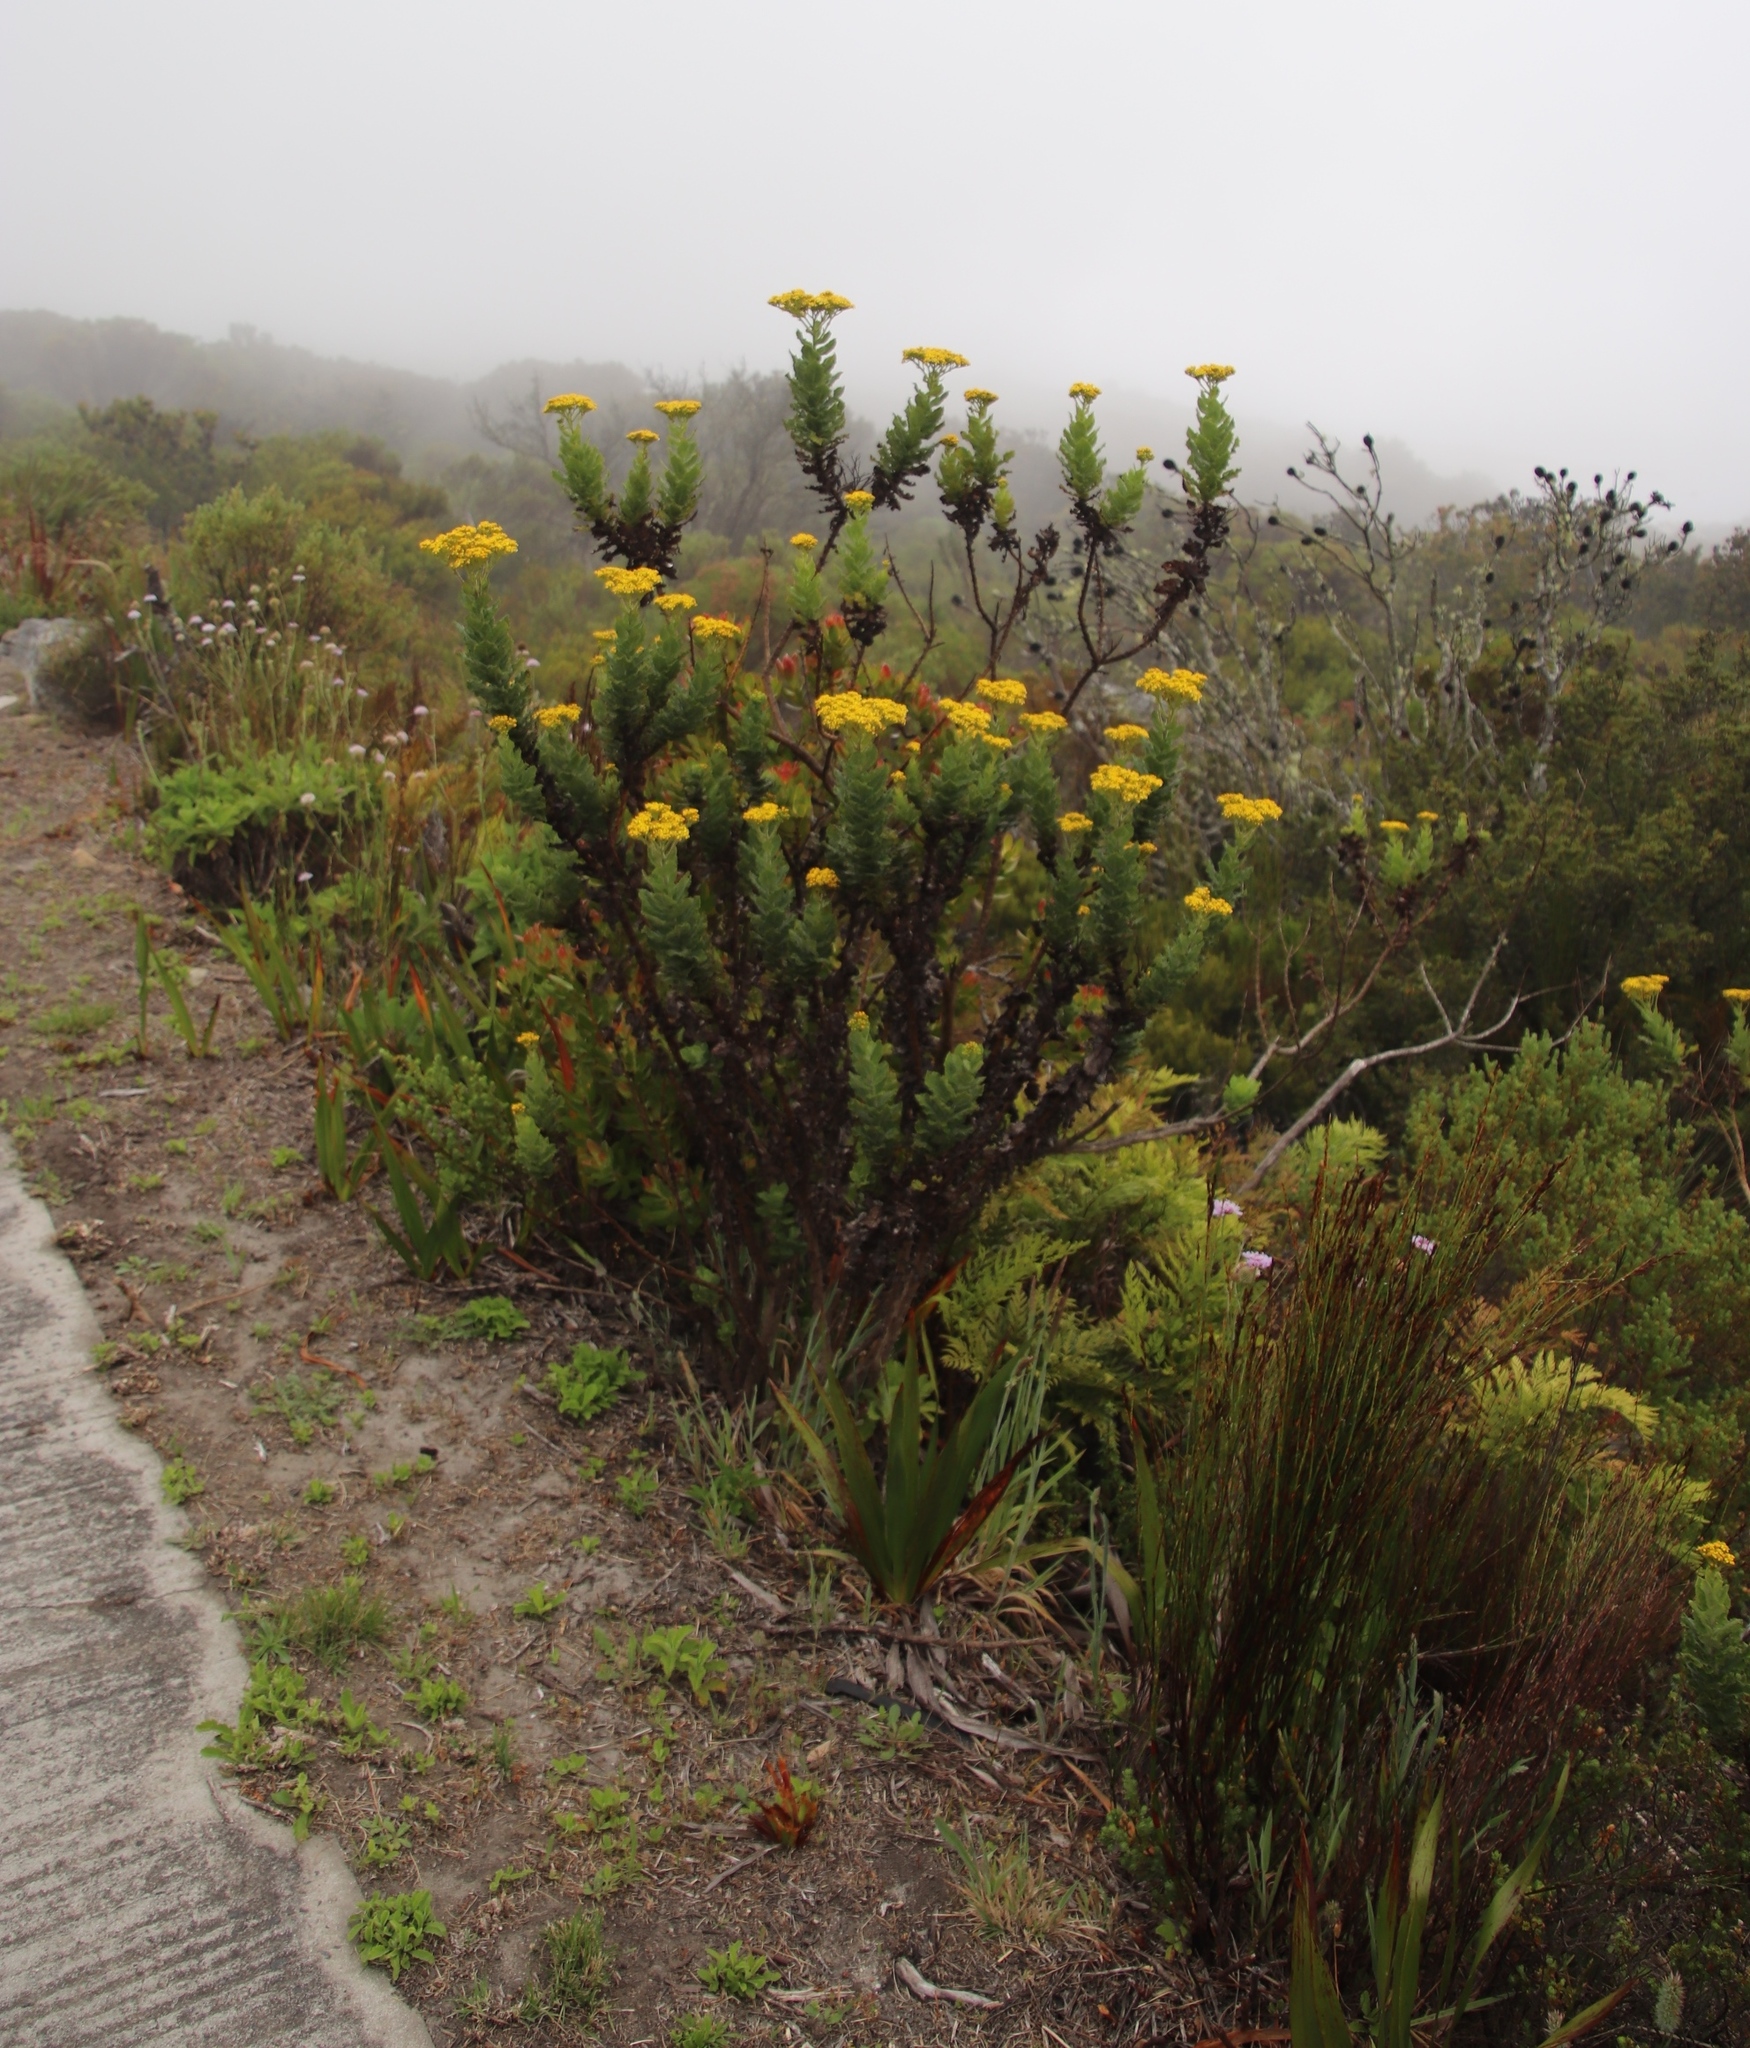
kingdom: Plantae
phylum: Tracheophyta
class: Magnoliopsida
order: Asterales
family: Asteraceae
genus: Senecio
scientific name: Senecio rigidus
